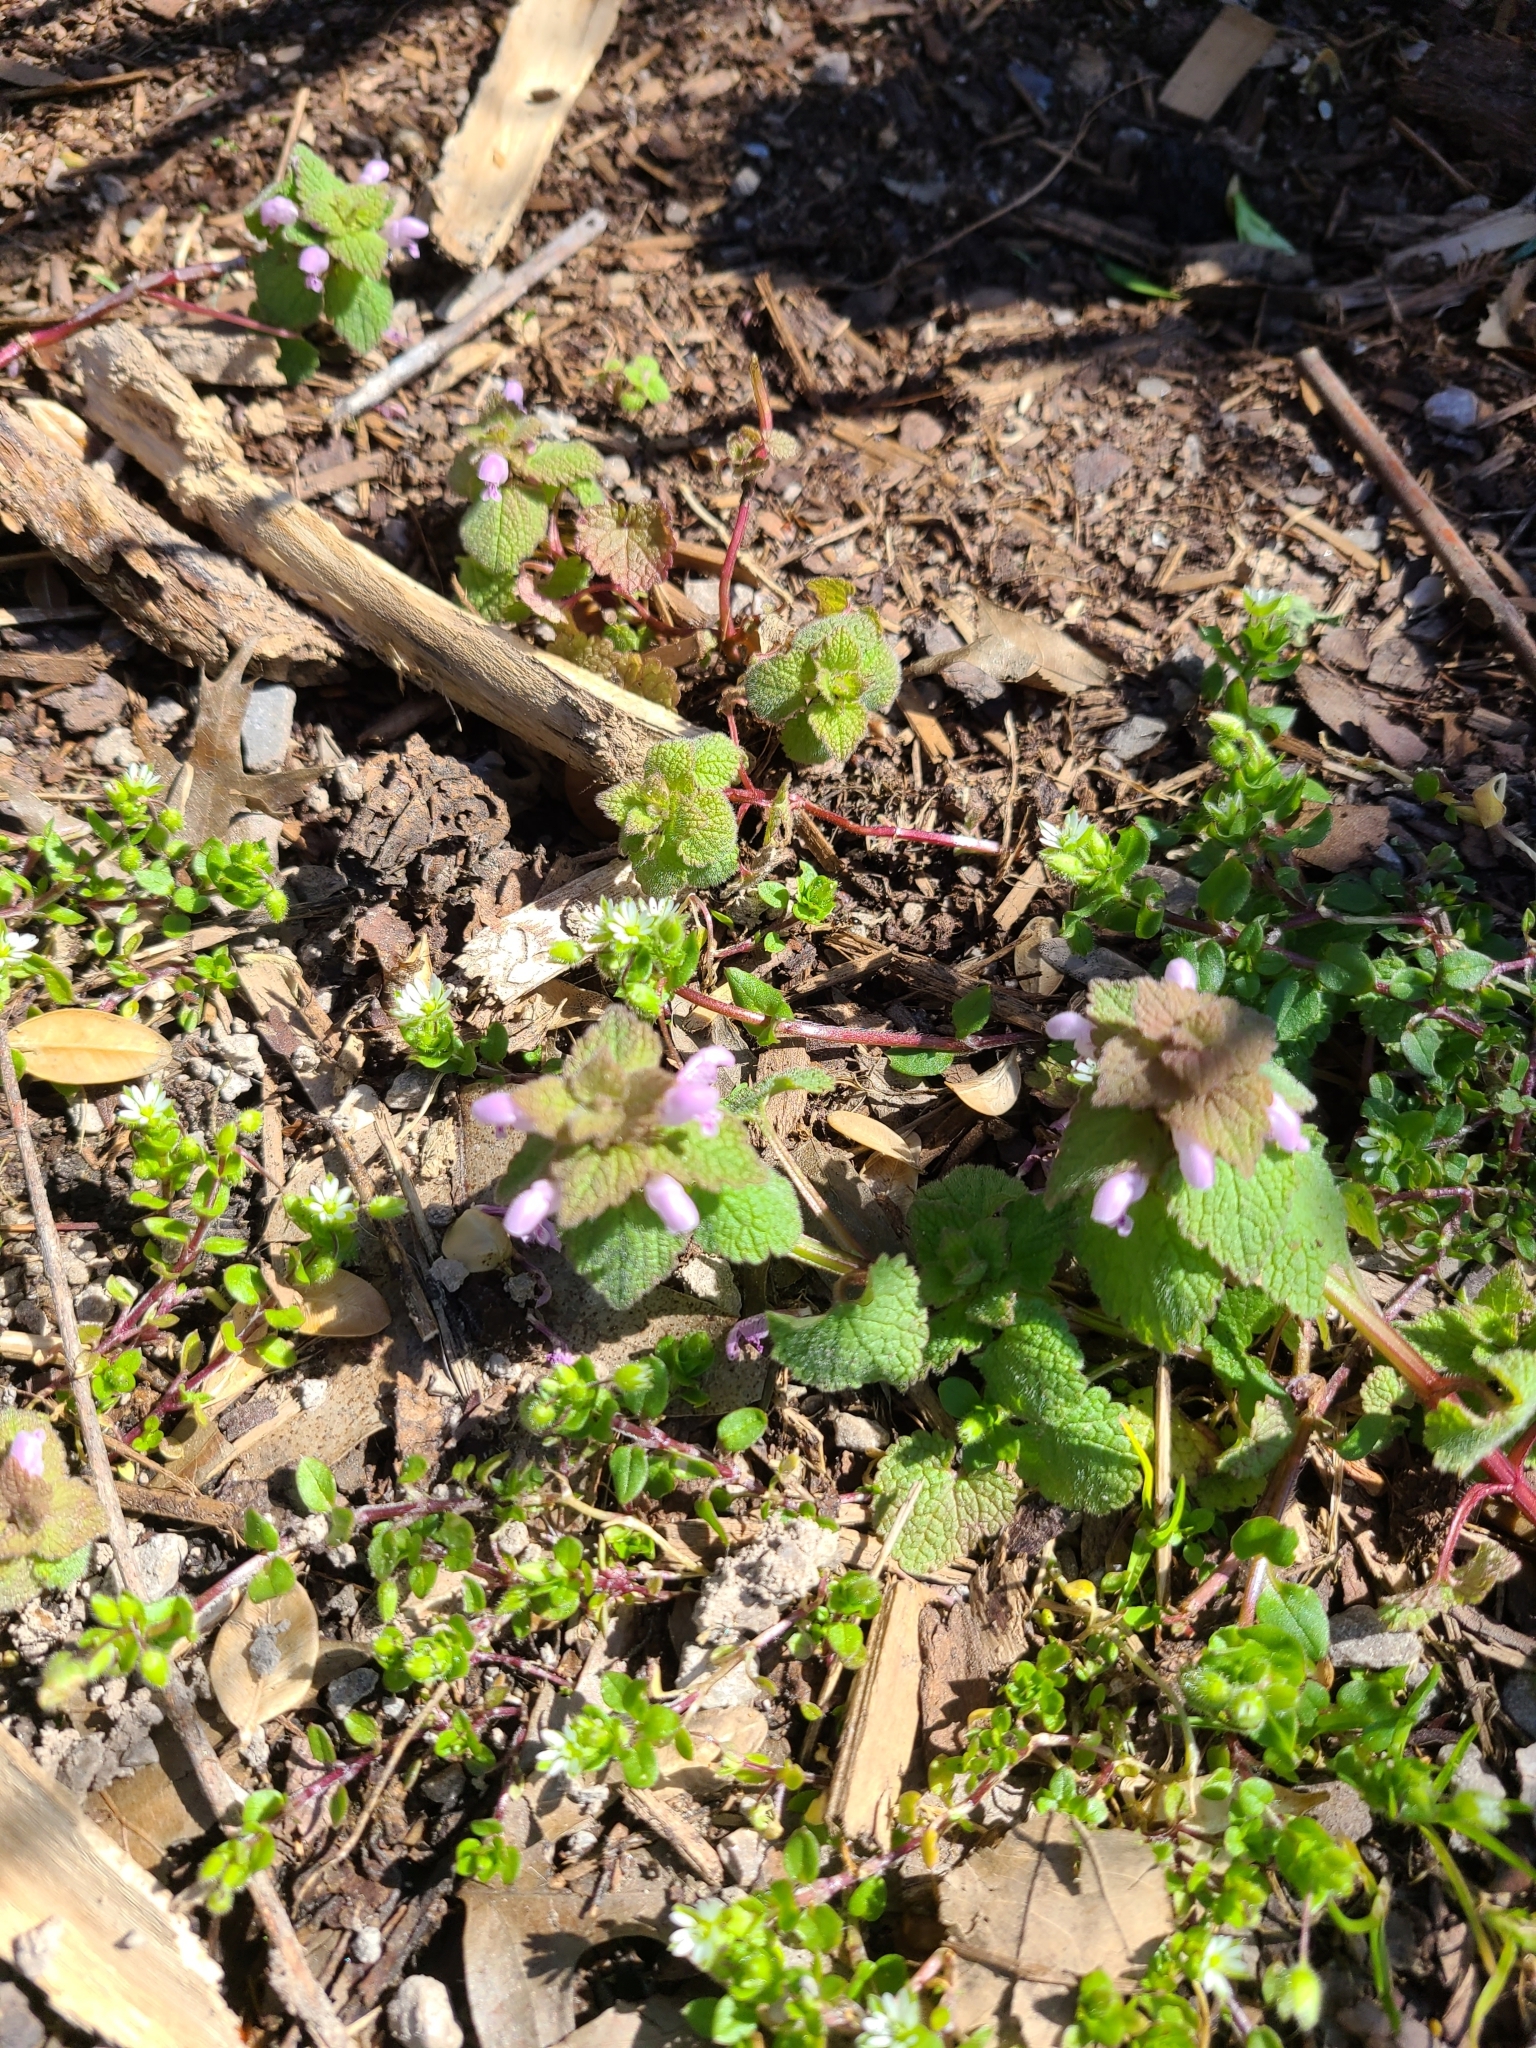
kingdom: Plantae
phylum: Tracheophyta
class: Magnoliopsida
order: Lamiales
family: Lamiaceae
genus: Lamium
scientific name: Lamium purpureum
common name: Red dead-nettle
